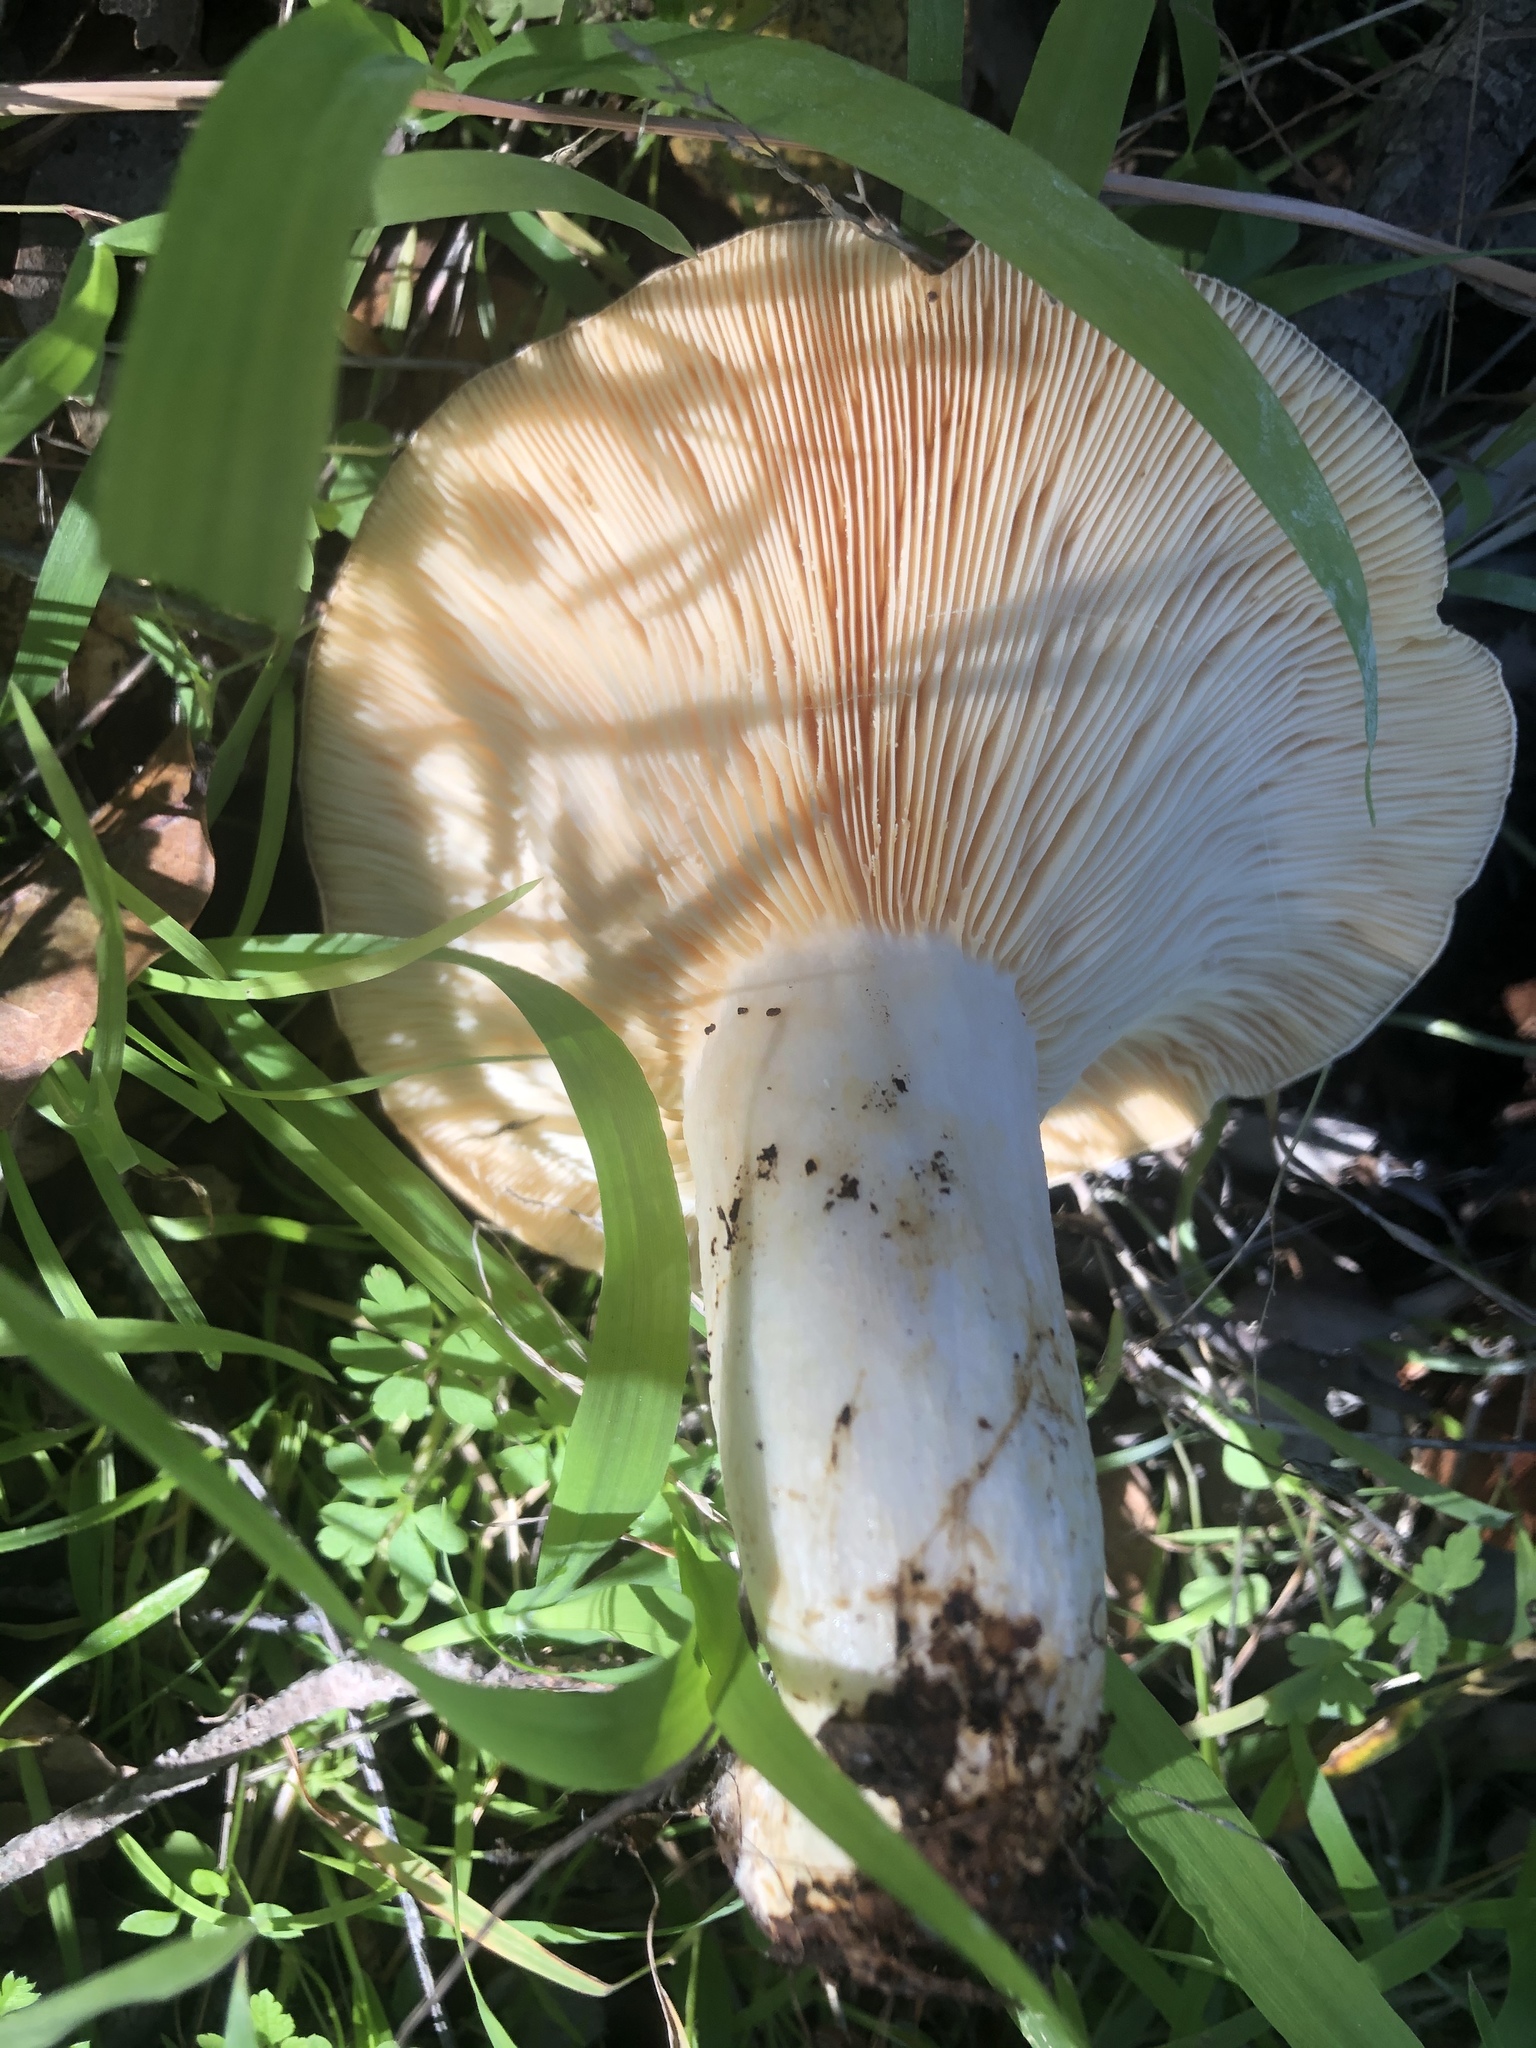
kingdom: Fungi
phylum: Basidiomycota
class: Agaricomycetes
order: Russulales
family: Russulaceae
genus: Lactarius
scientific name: Lactarius alnicola
